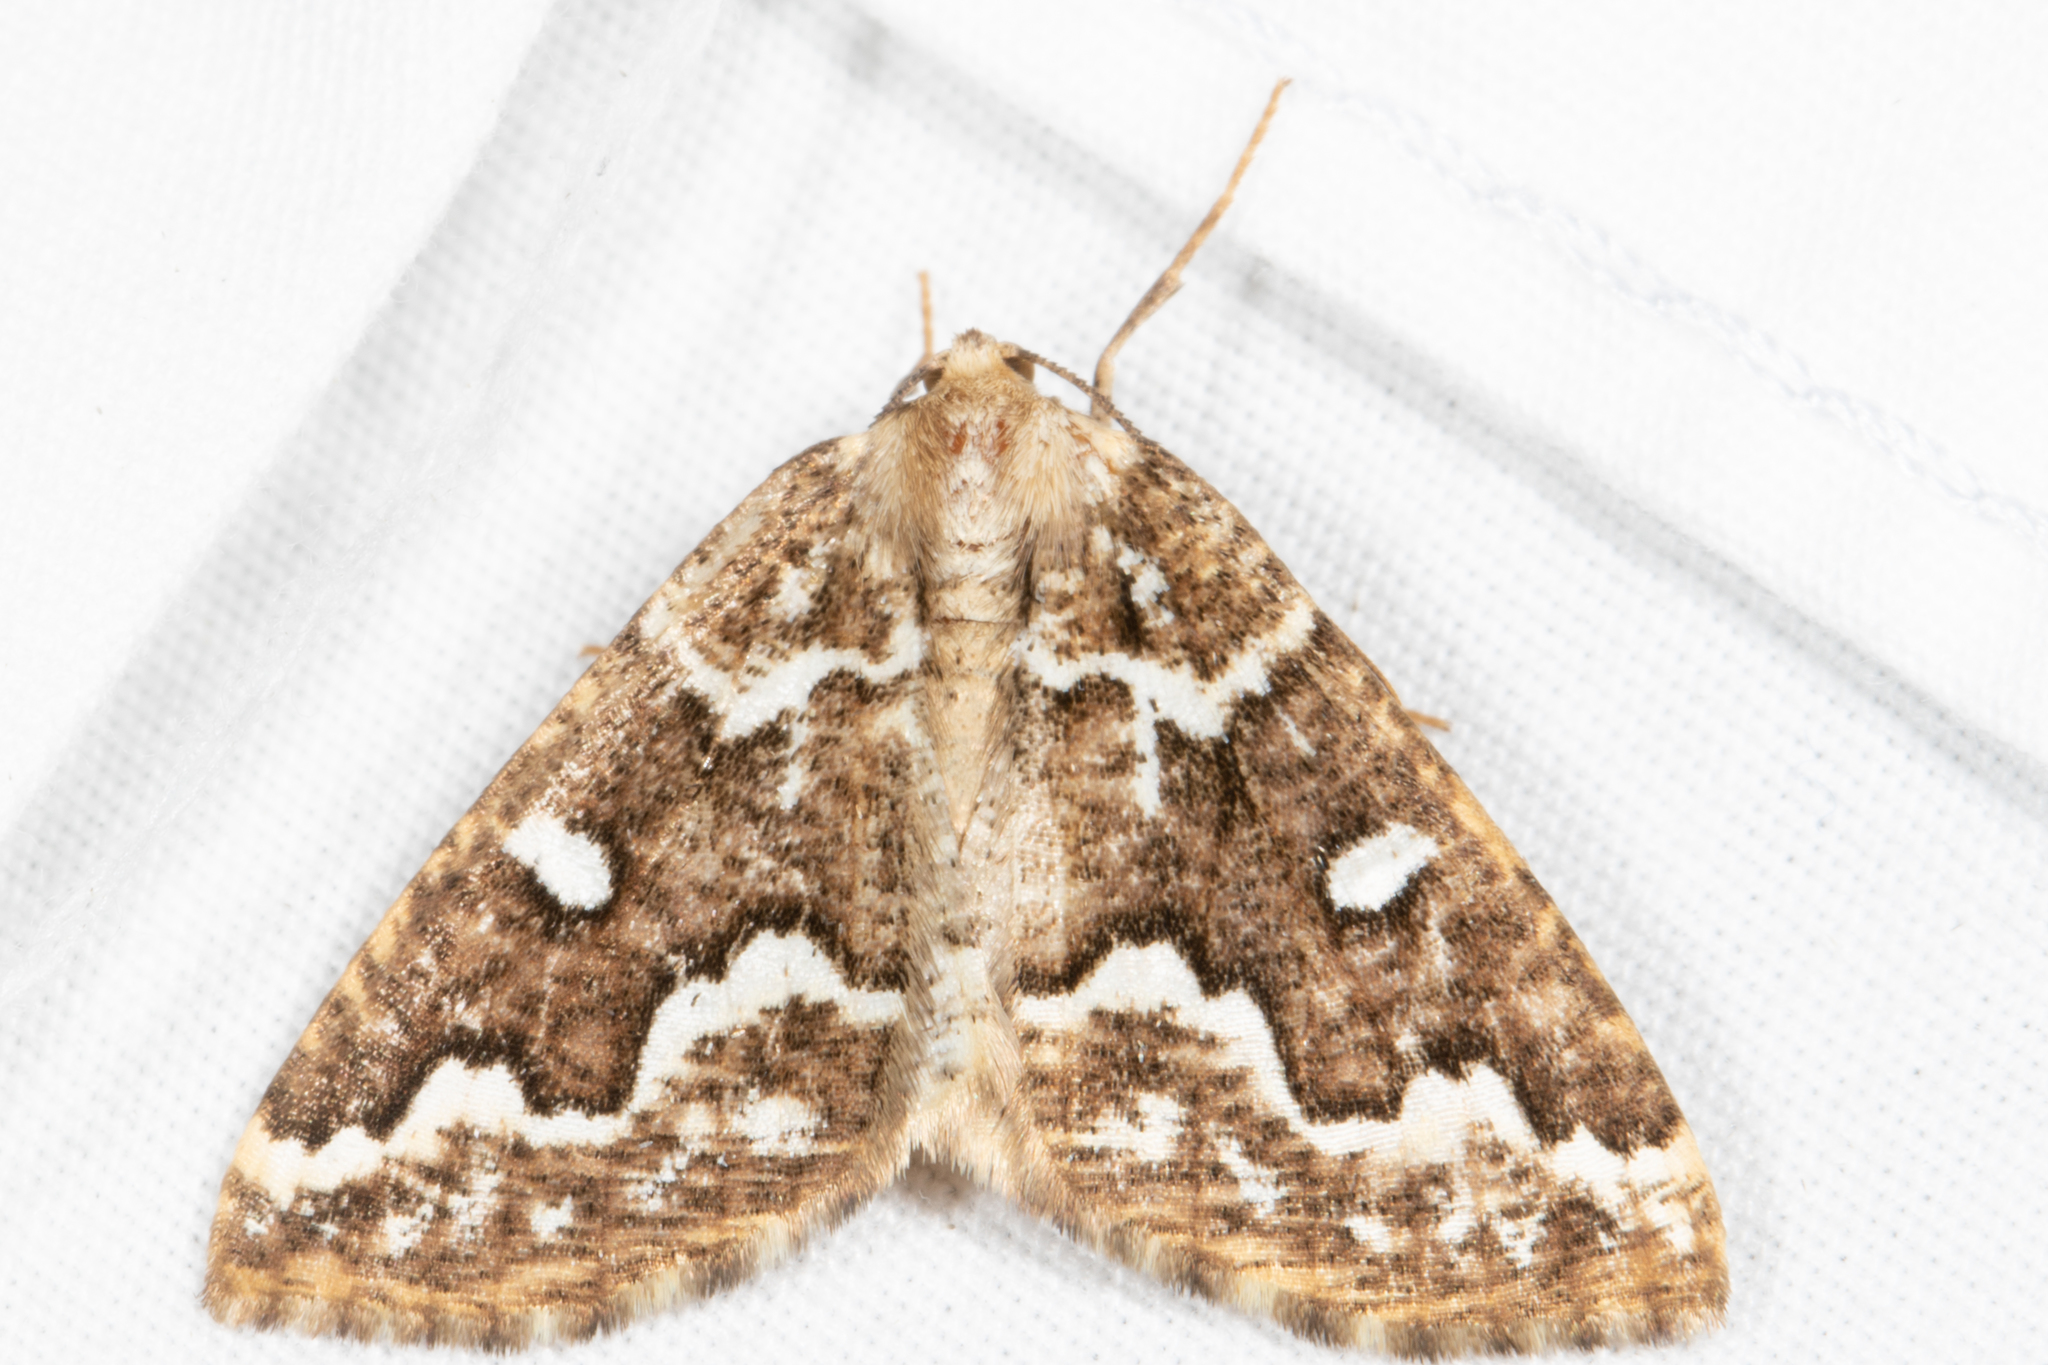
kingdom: Animalia
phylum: Arthropoda
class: Insecta
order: Lepidoptera
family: Geometridae
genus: Caripeta
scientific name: Caripeta divisata
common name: Gray spruce looper
